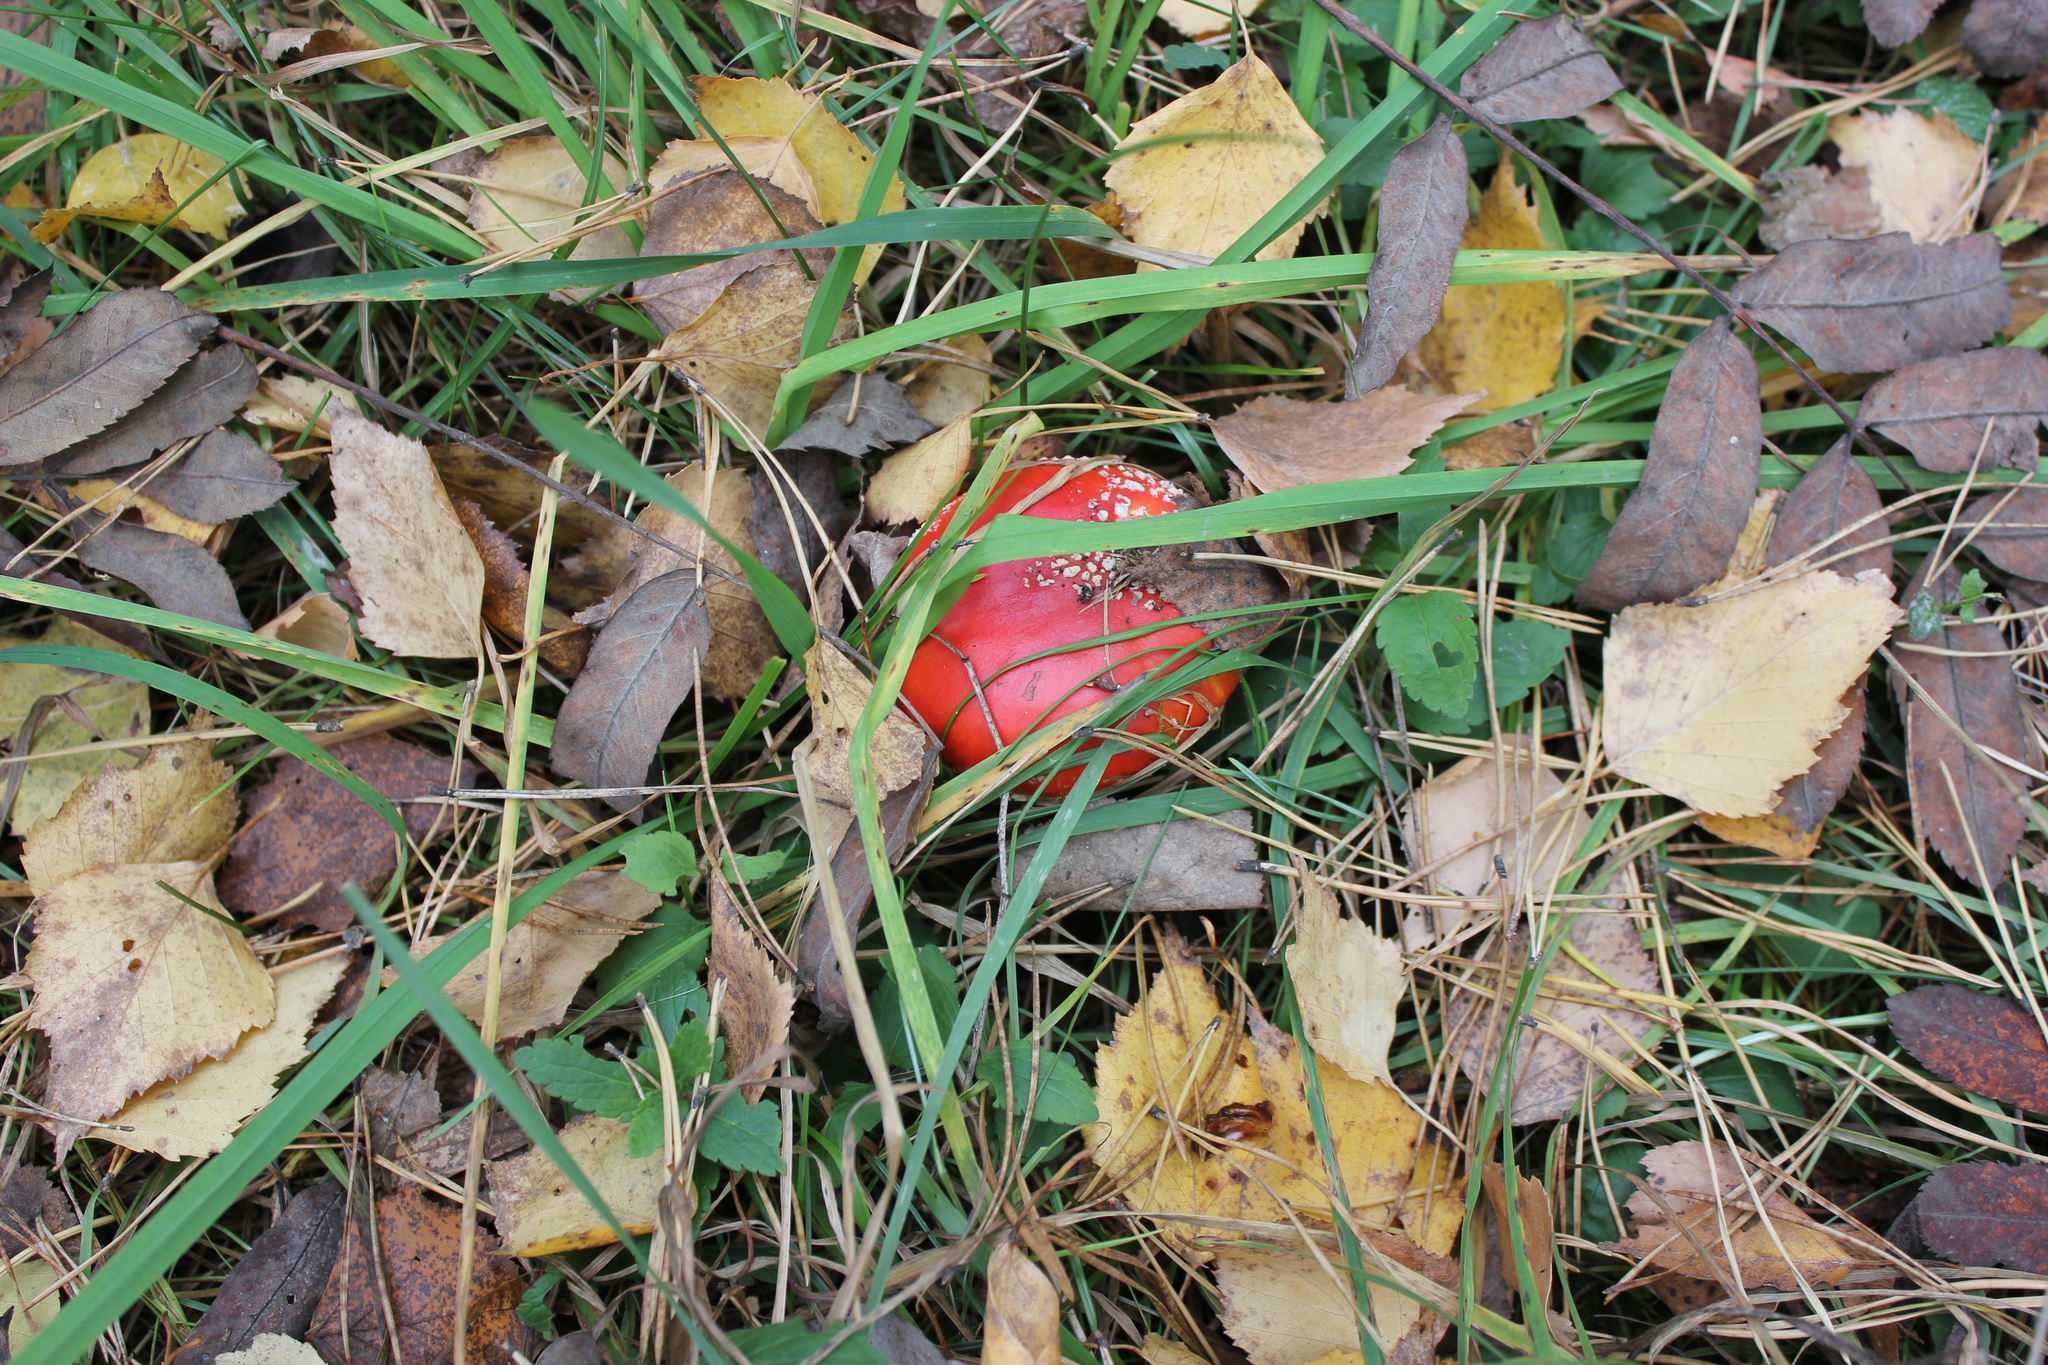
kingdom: Fungi
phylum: Basidiomycota
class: Agaricomycetes
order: Agaricales
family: Amanitaceae
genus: Amanita
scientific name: Amanita muscaria
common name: Fly agaric
